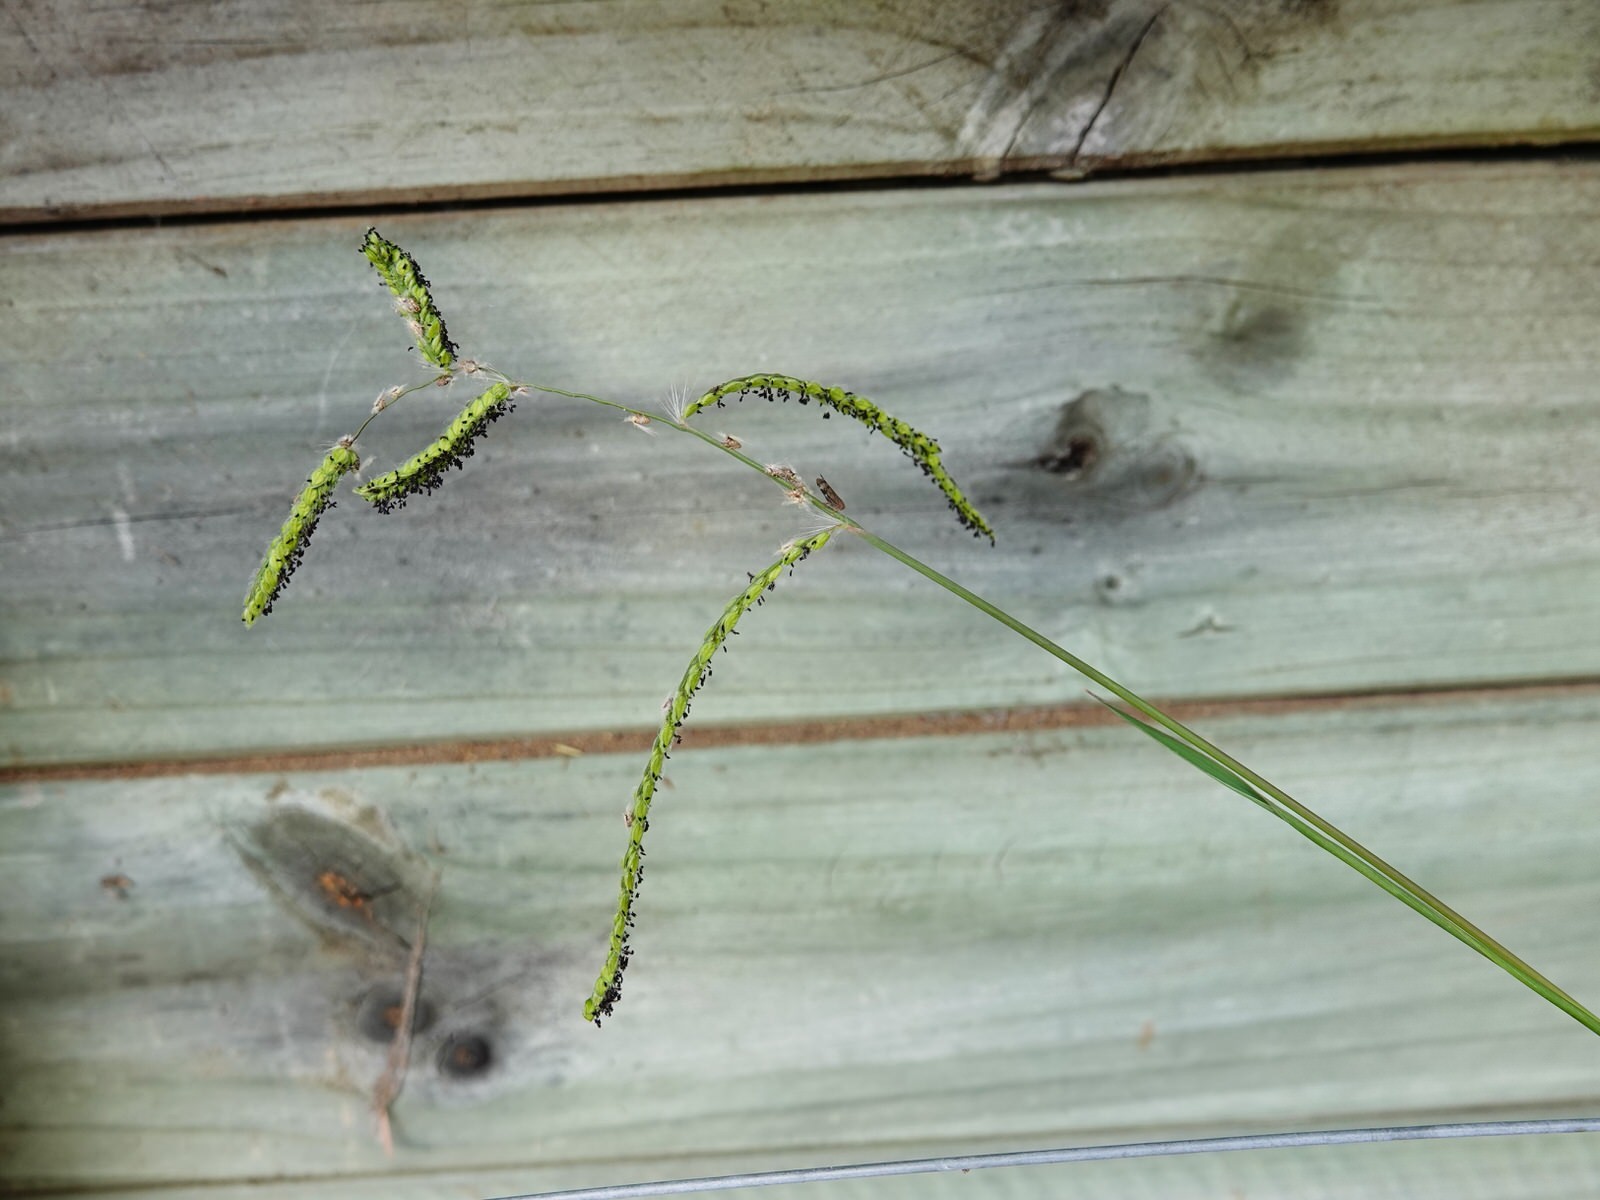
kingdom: Plantae
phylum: Tracheophyta
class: Liliopsida
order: Poales
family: Poaceae
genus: Paspalum
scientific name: Paspalum dilatatum
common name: Dallisgrass
